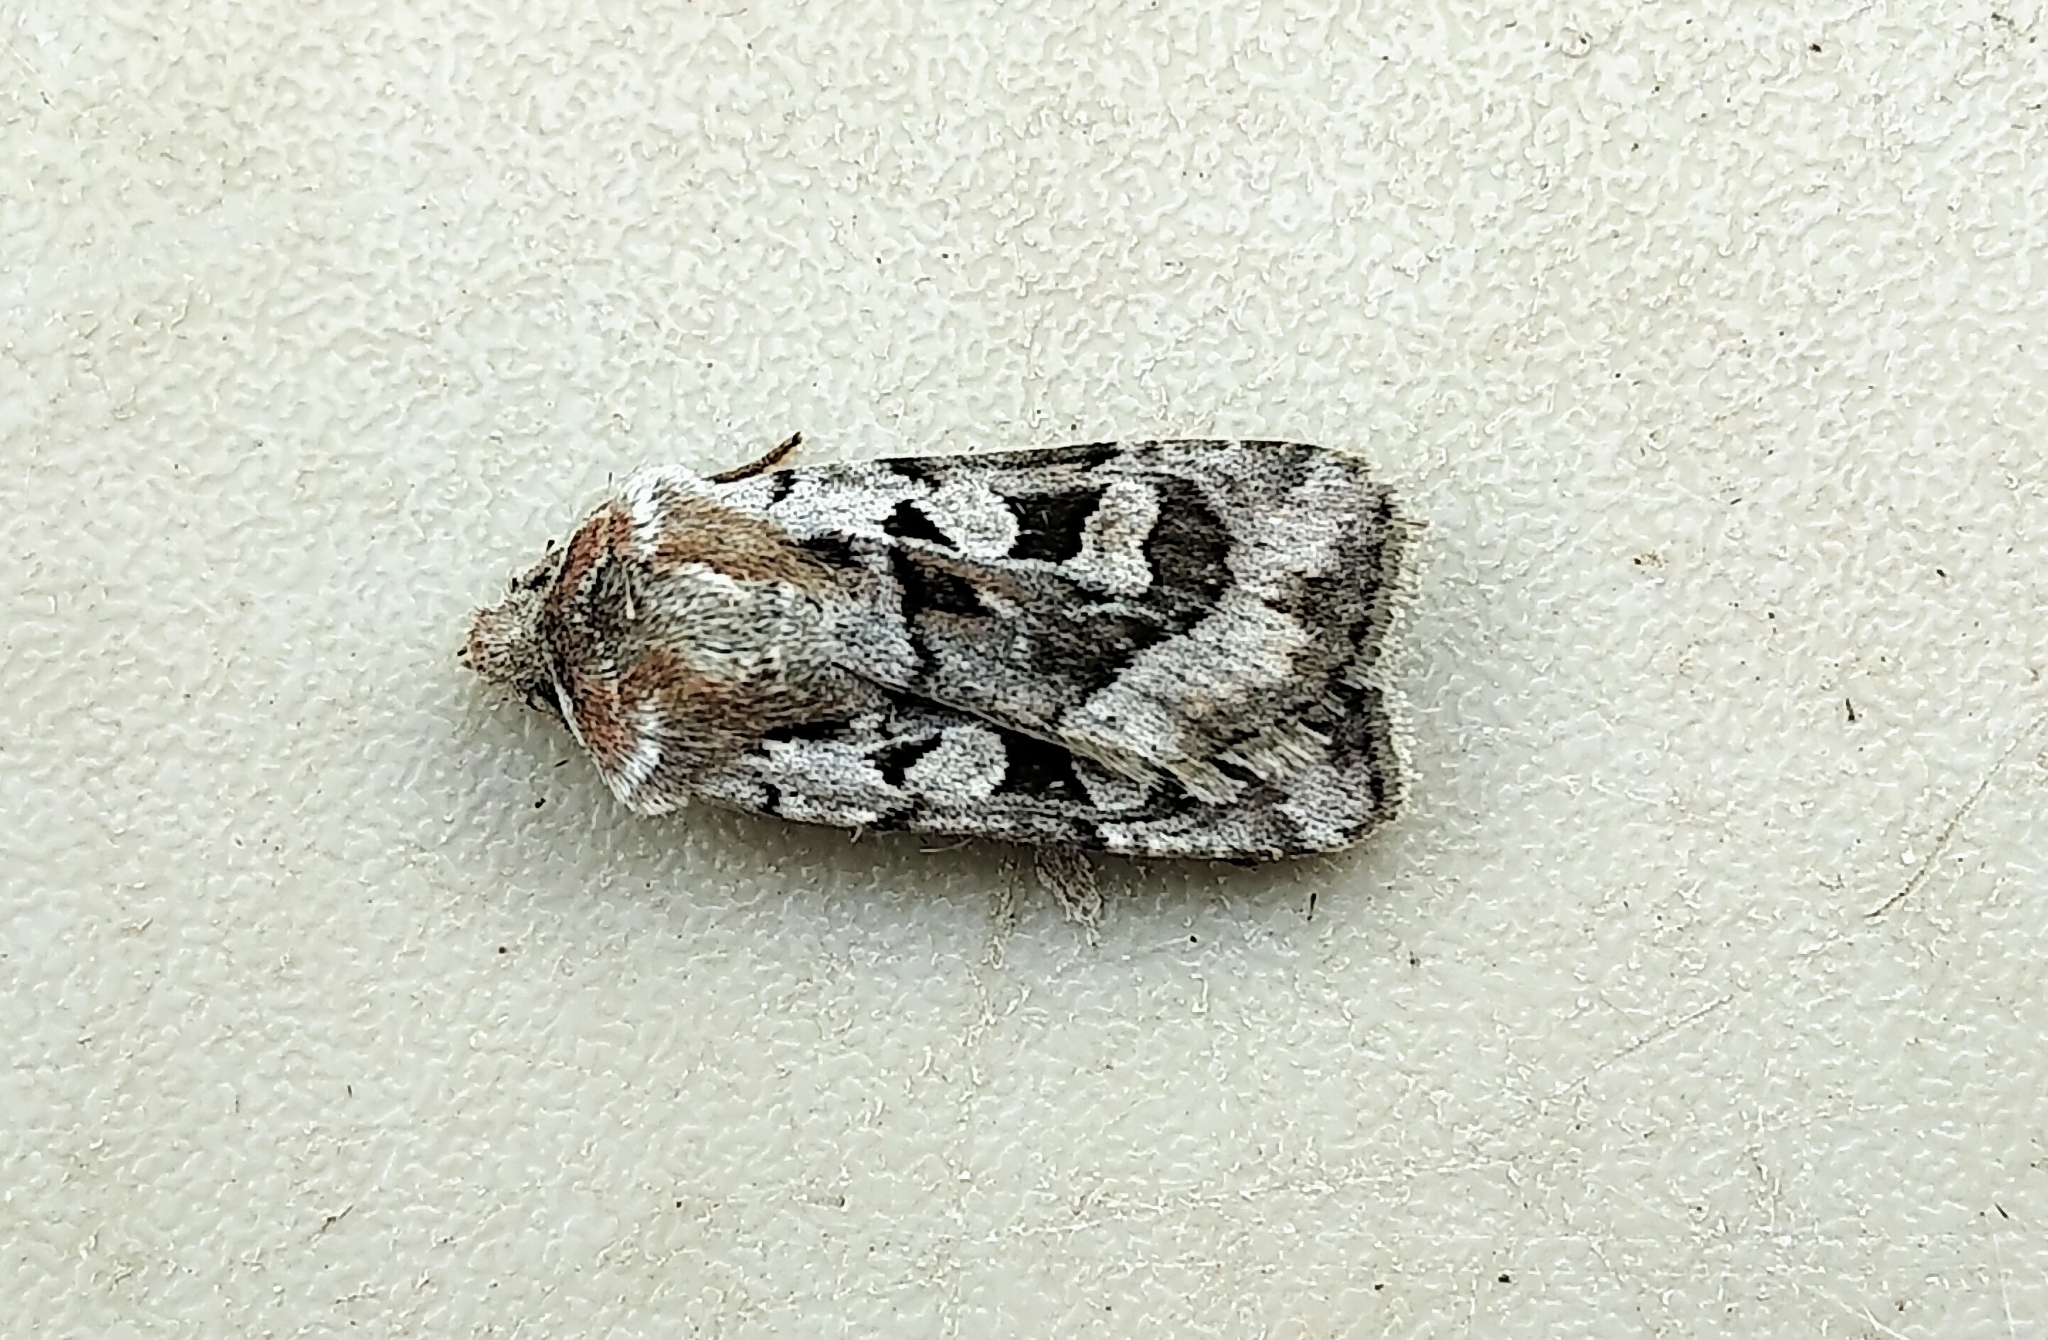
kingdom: Animalia
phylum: Arthropoda
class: Insecta
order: Lepidoptera
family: Noctuidae
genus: Euxoa
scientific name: Euxoa auripennis
